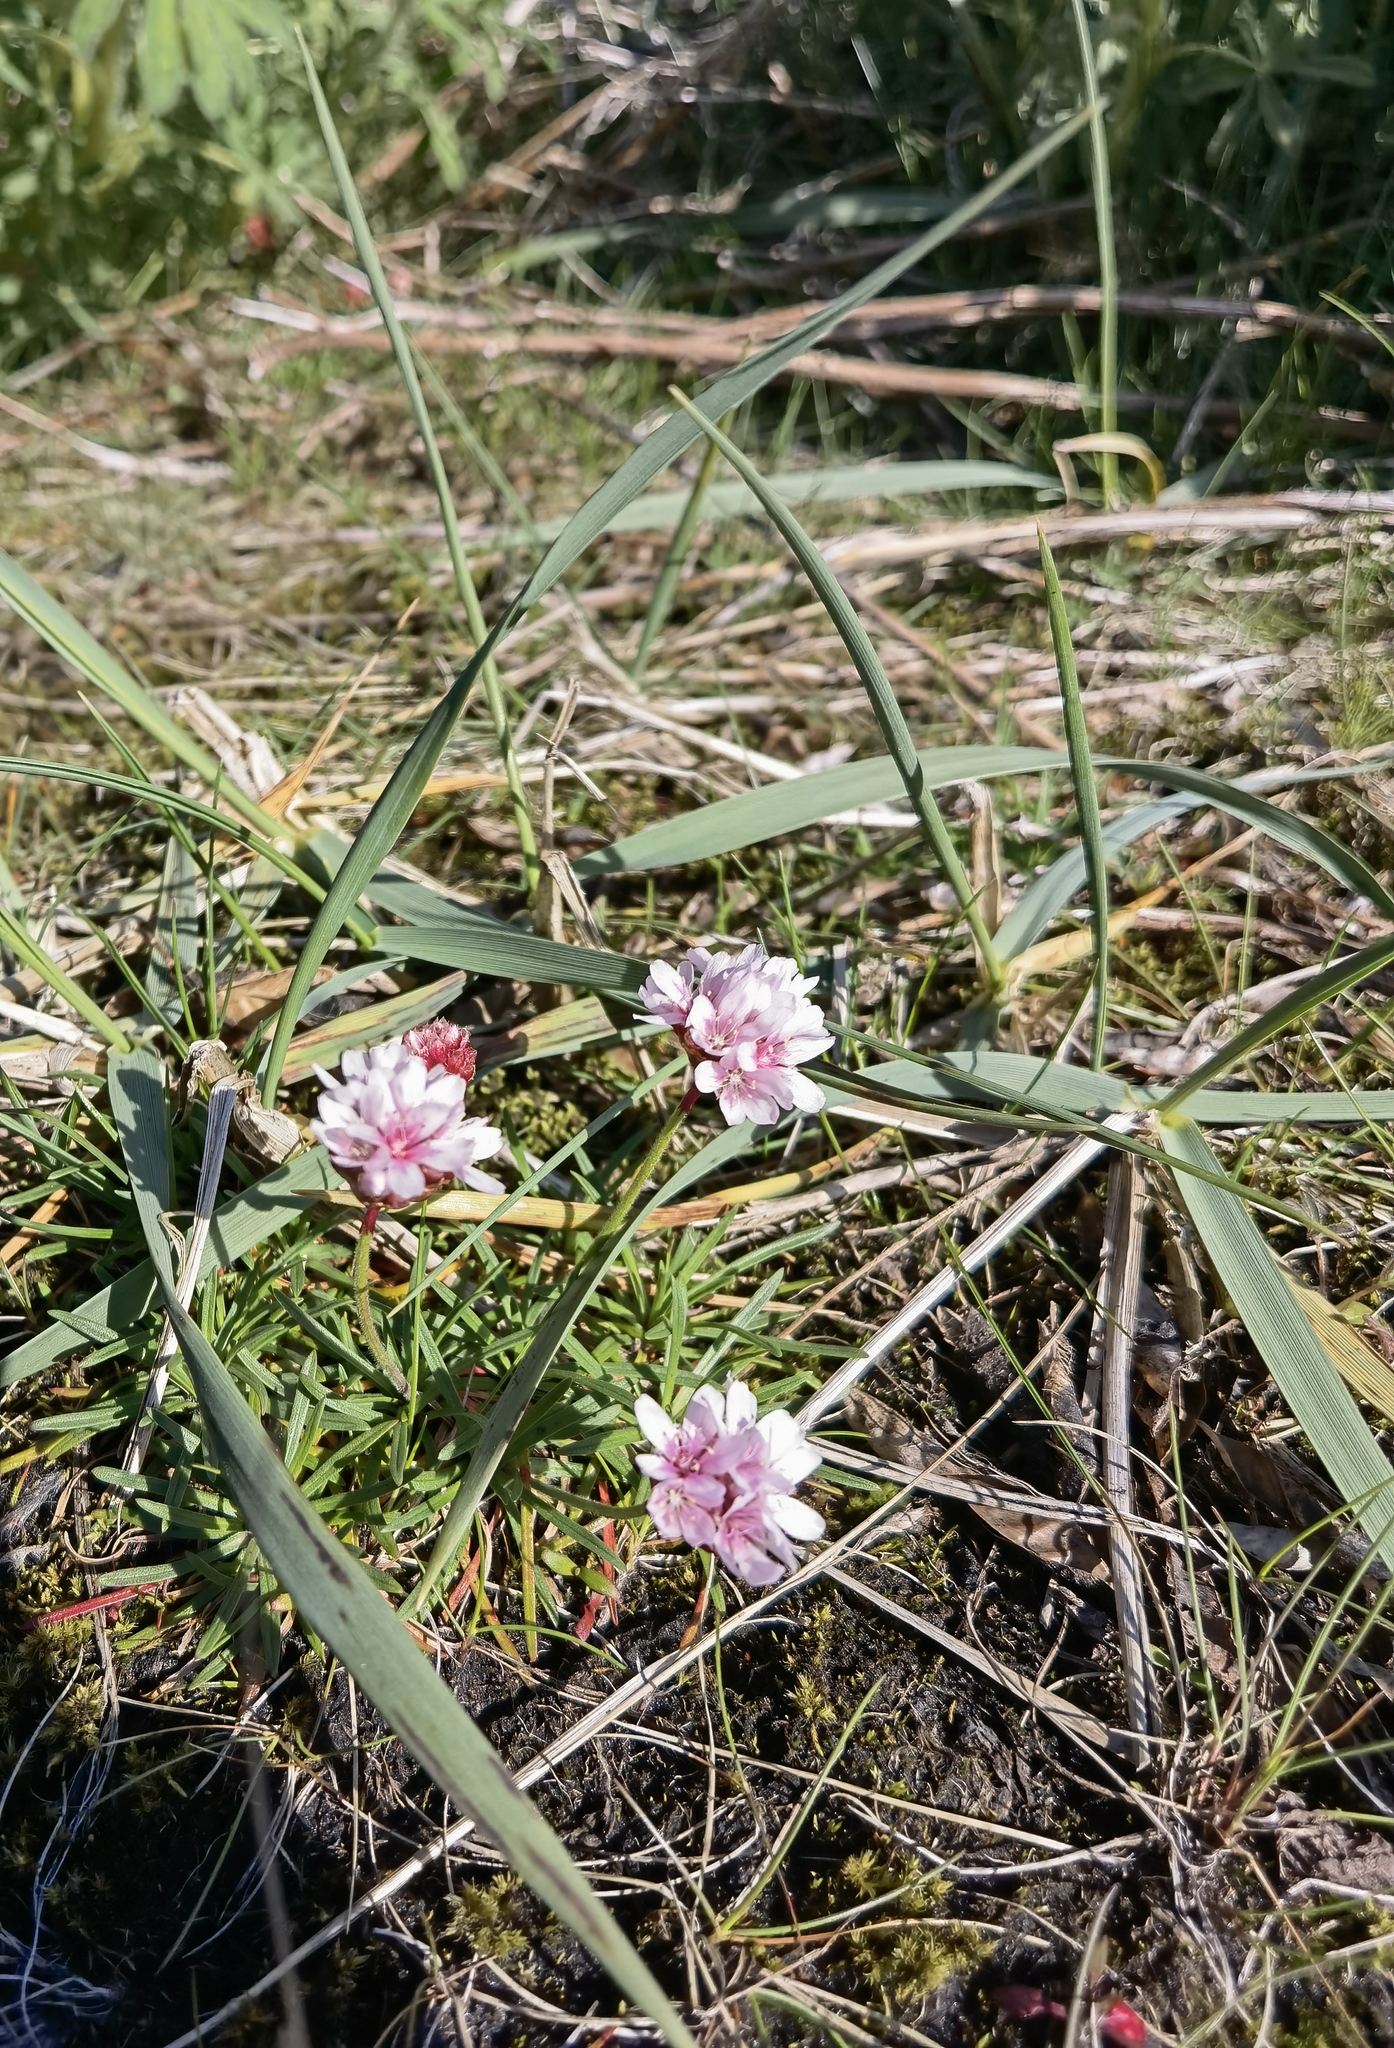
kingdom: Plantae
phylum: Tracheophyta
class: Magnoliopsida
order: Caryophyllales
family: Plumbaginaceae
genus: Armeria
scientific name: Armeria maritima
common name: Thrift
